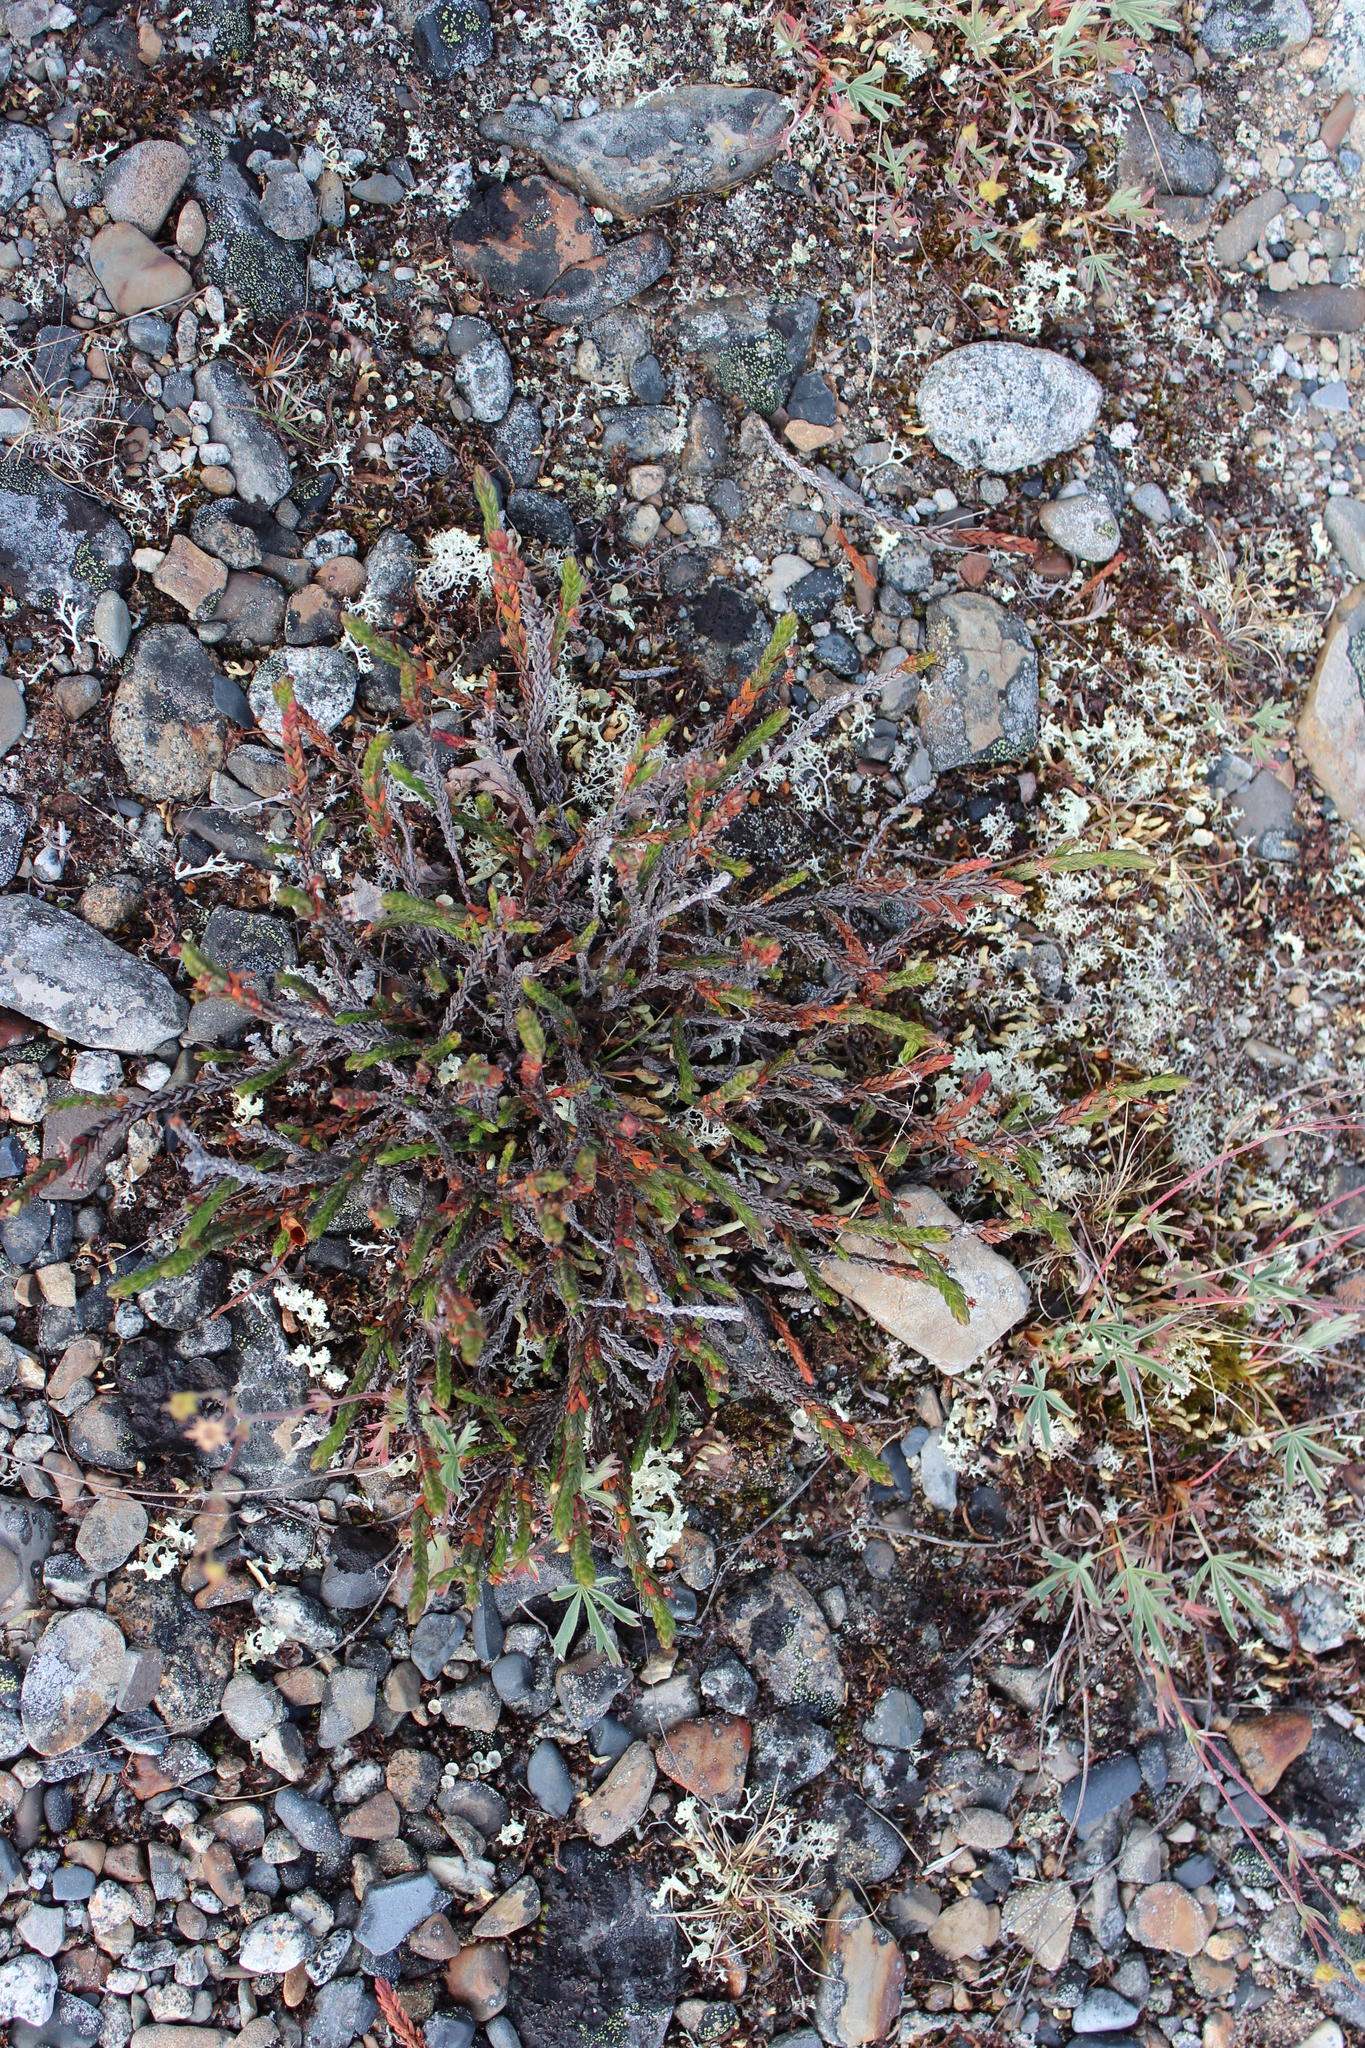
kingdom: Plantae
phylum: Tracheophyta
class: Magnoliopsida
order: Ericales
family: Ericaceae
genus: Cassiope
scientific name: Cassiope tetragona
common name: Arctic bell heather
